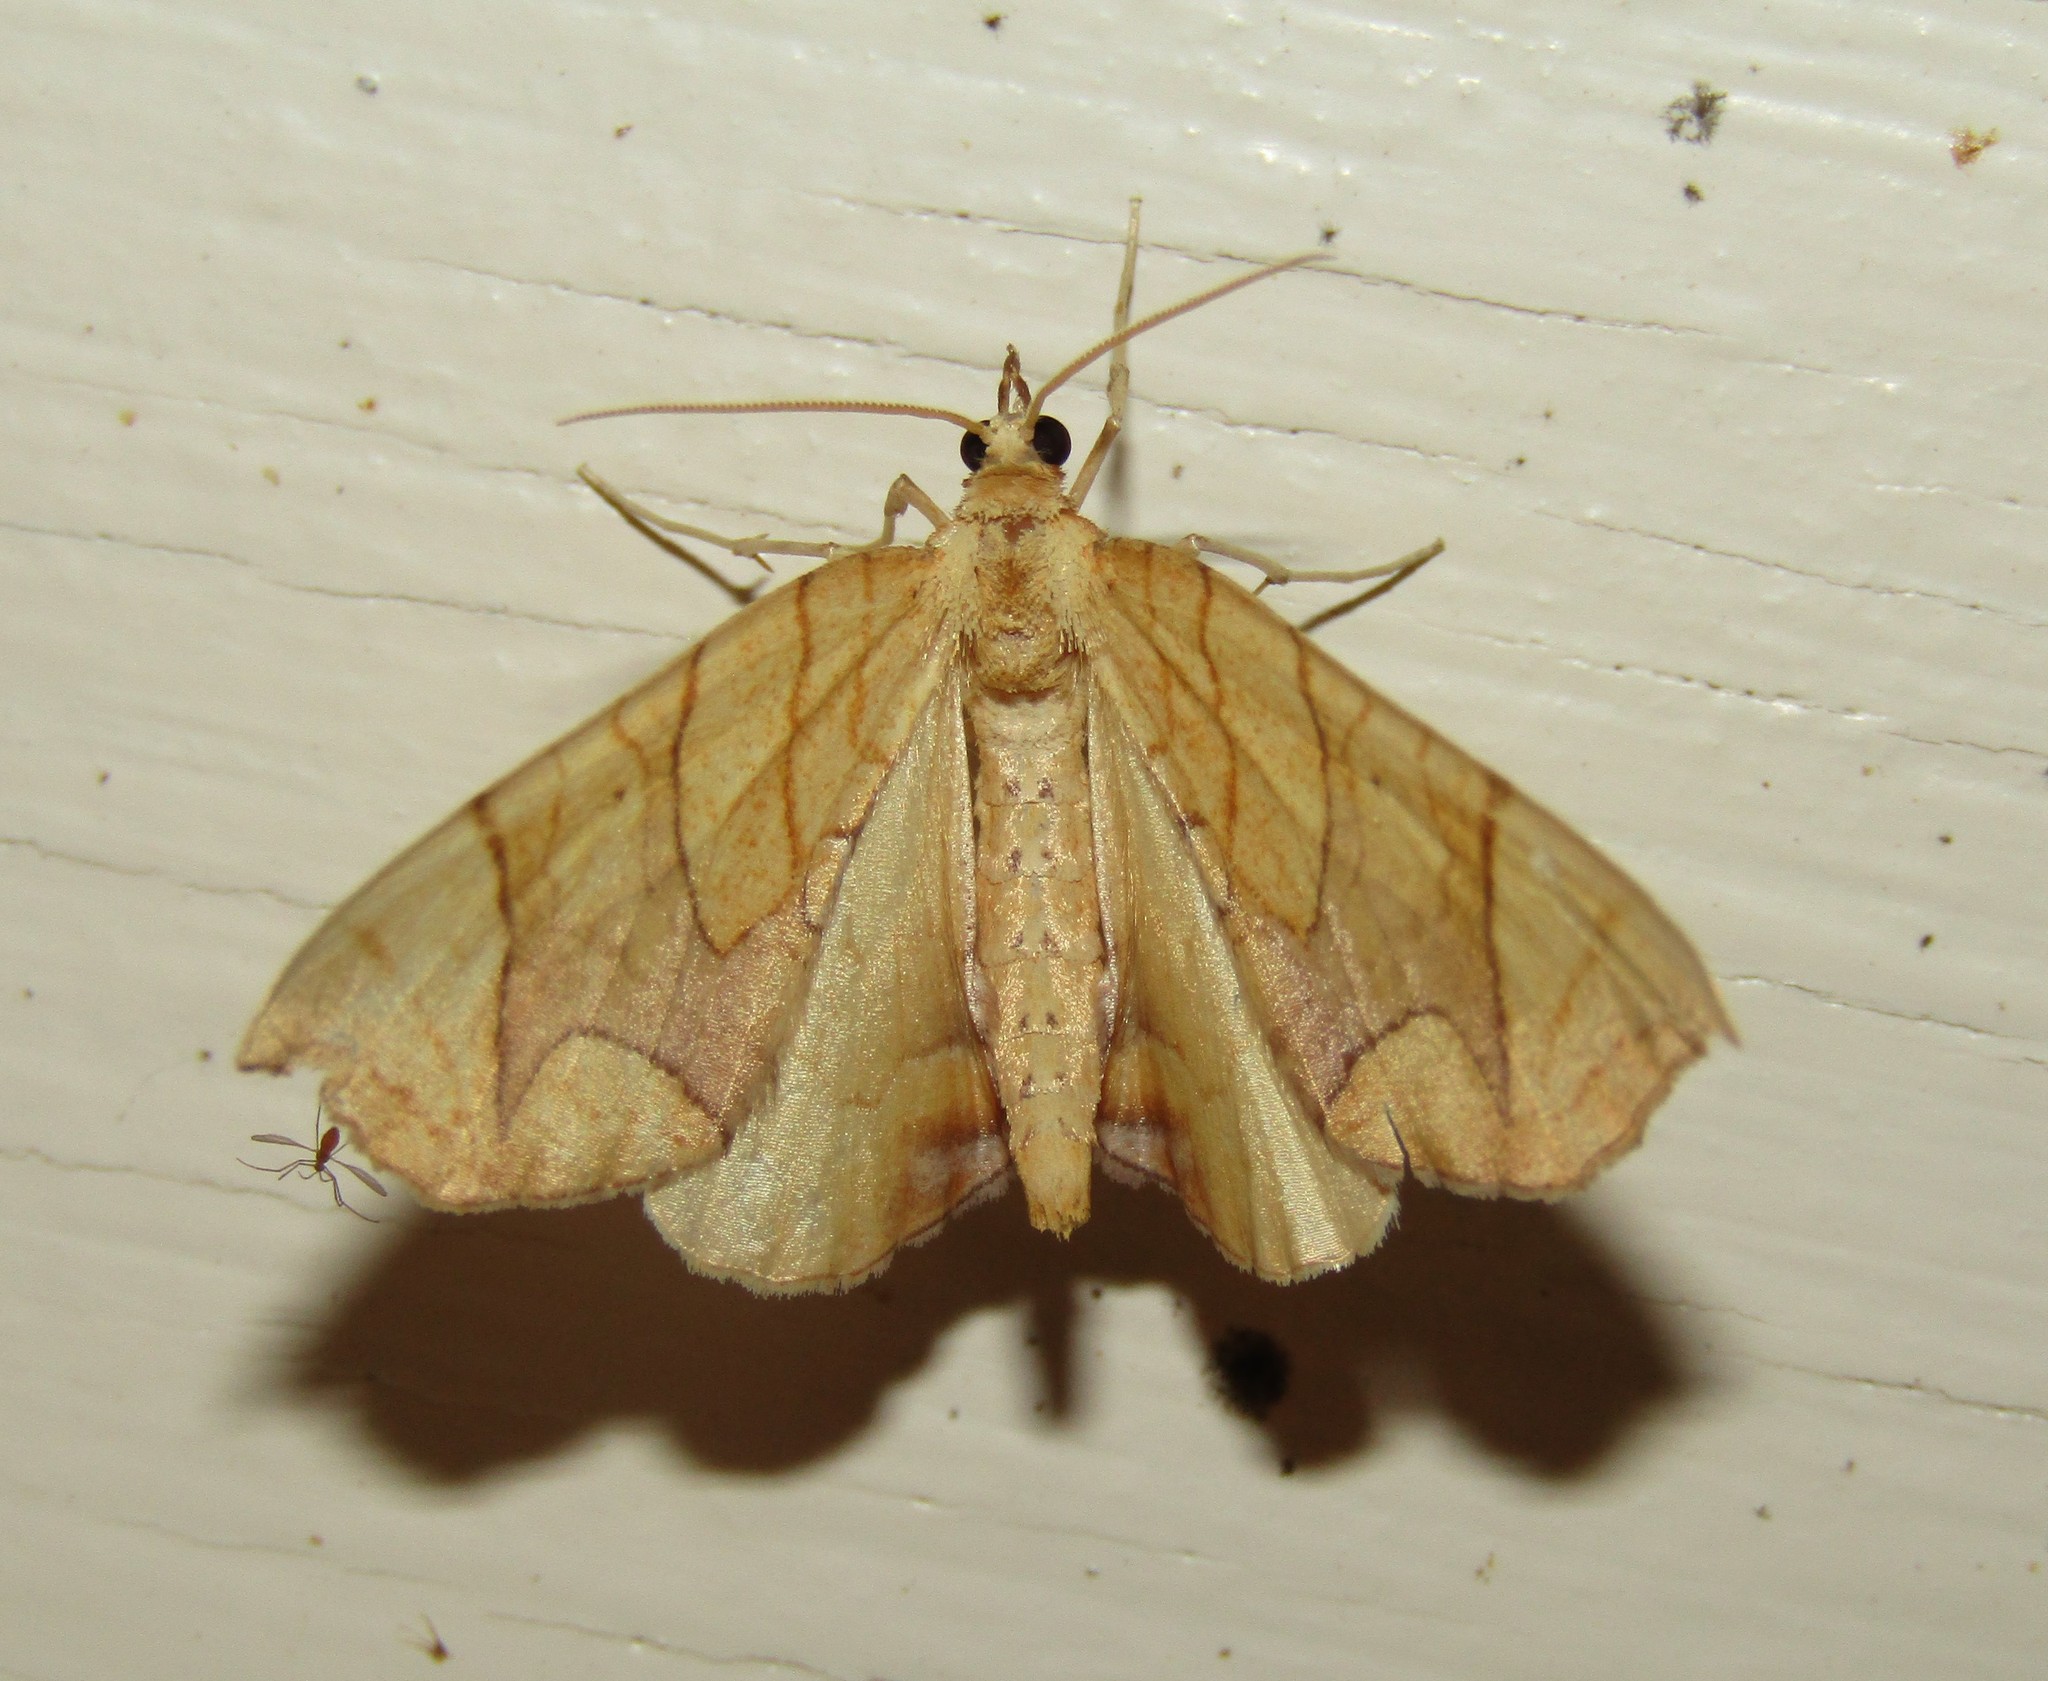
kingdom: Animalia
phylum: Arthropoda
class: Insecta
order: Lepidoptera
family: Geometridae
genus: Eulithis
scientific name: Eulithis
